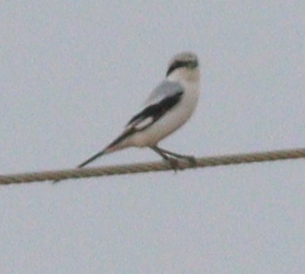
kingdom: Animalia
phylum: Chordata
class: Aves
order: Passeriformes
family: Laniidae
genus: Lanius
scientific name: Lanius excubitor
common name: Great grey shrike
